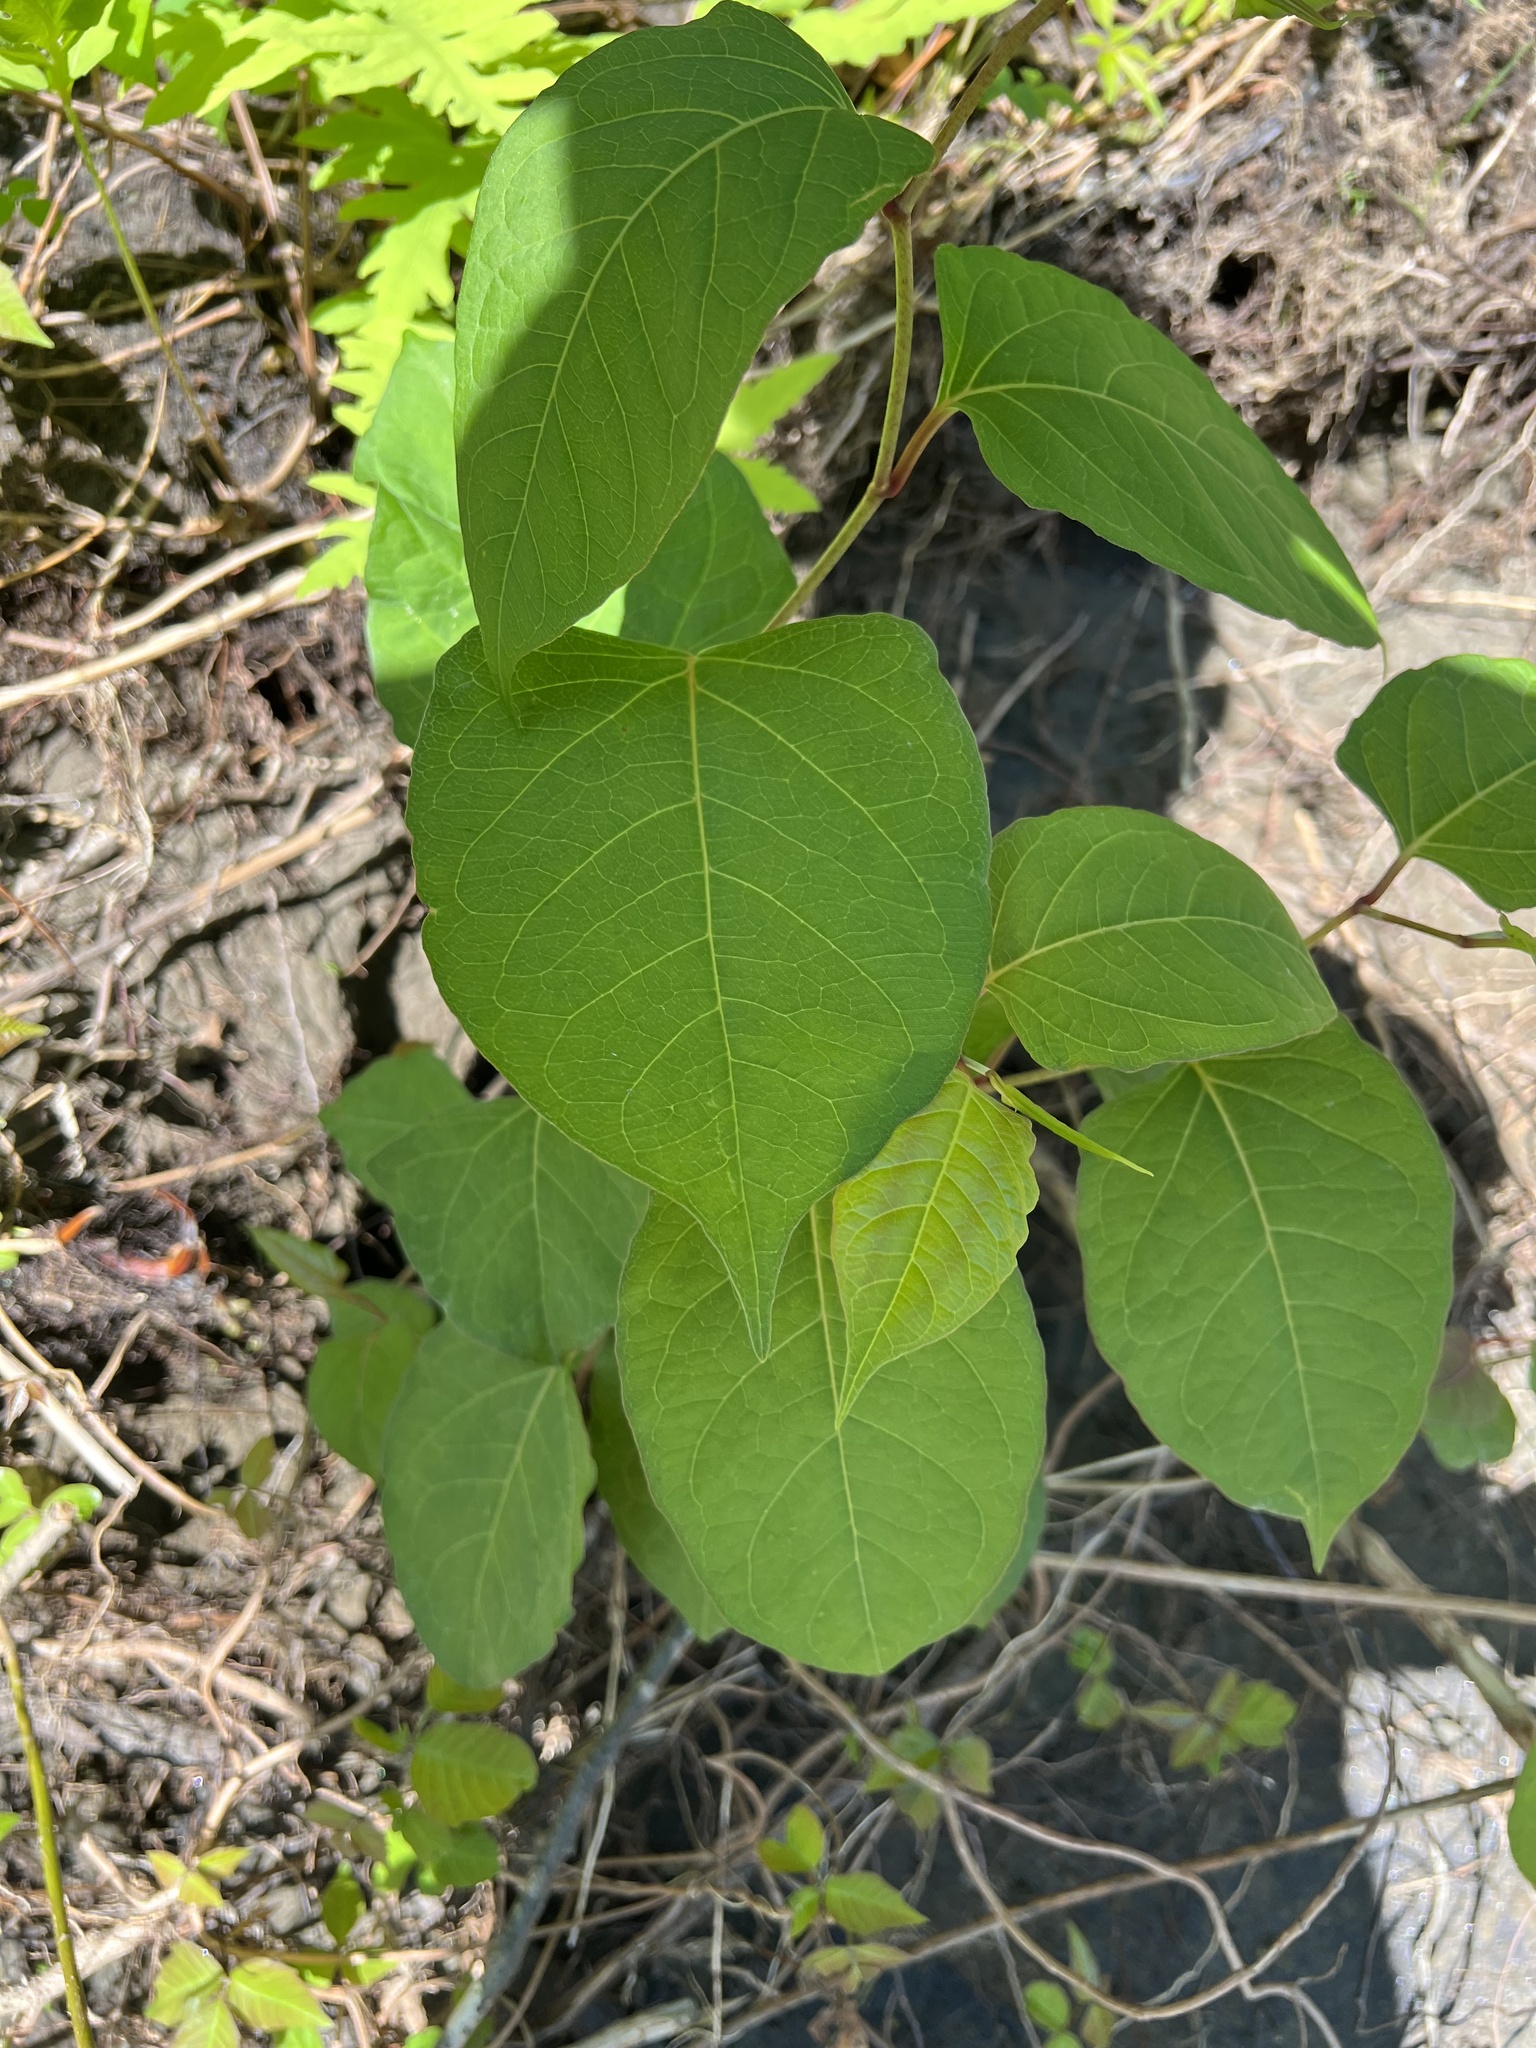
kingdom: Plantae
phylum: Tracheophyta
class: Magnoliopsida
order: Caryophyllales
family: Polygonaceae
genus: Reynoutria
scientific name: Reynoutria japonica
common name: Japanese knotweed
